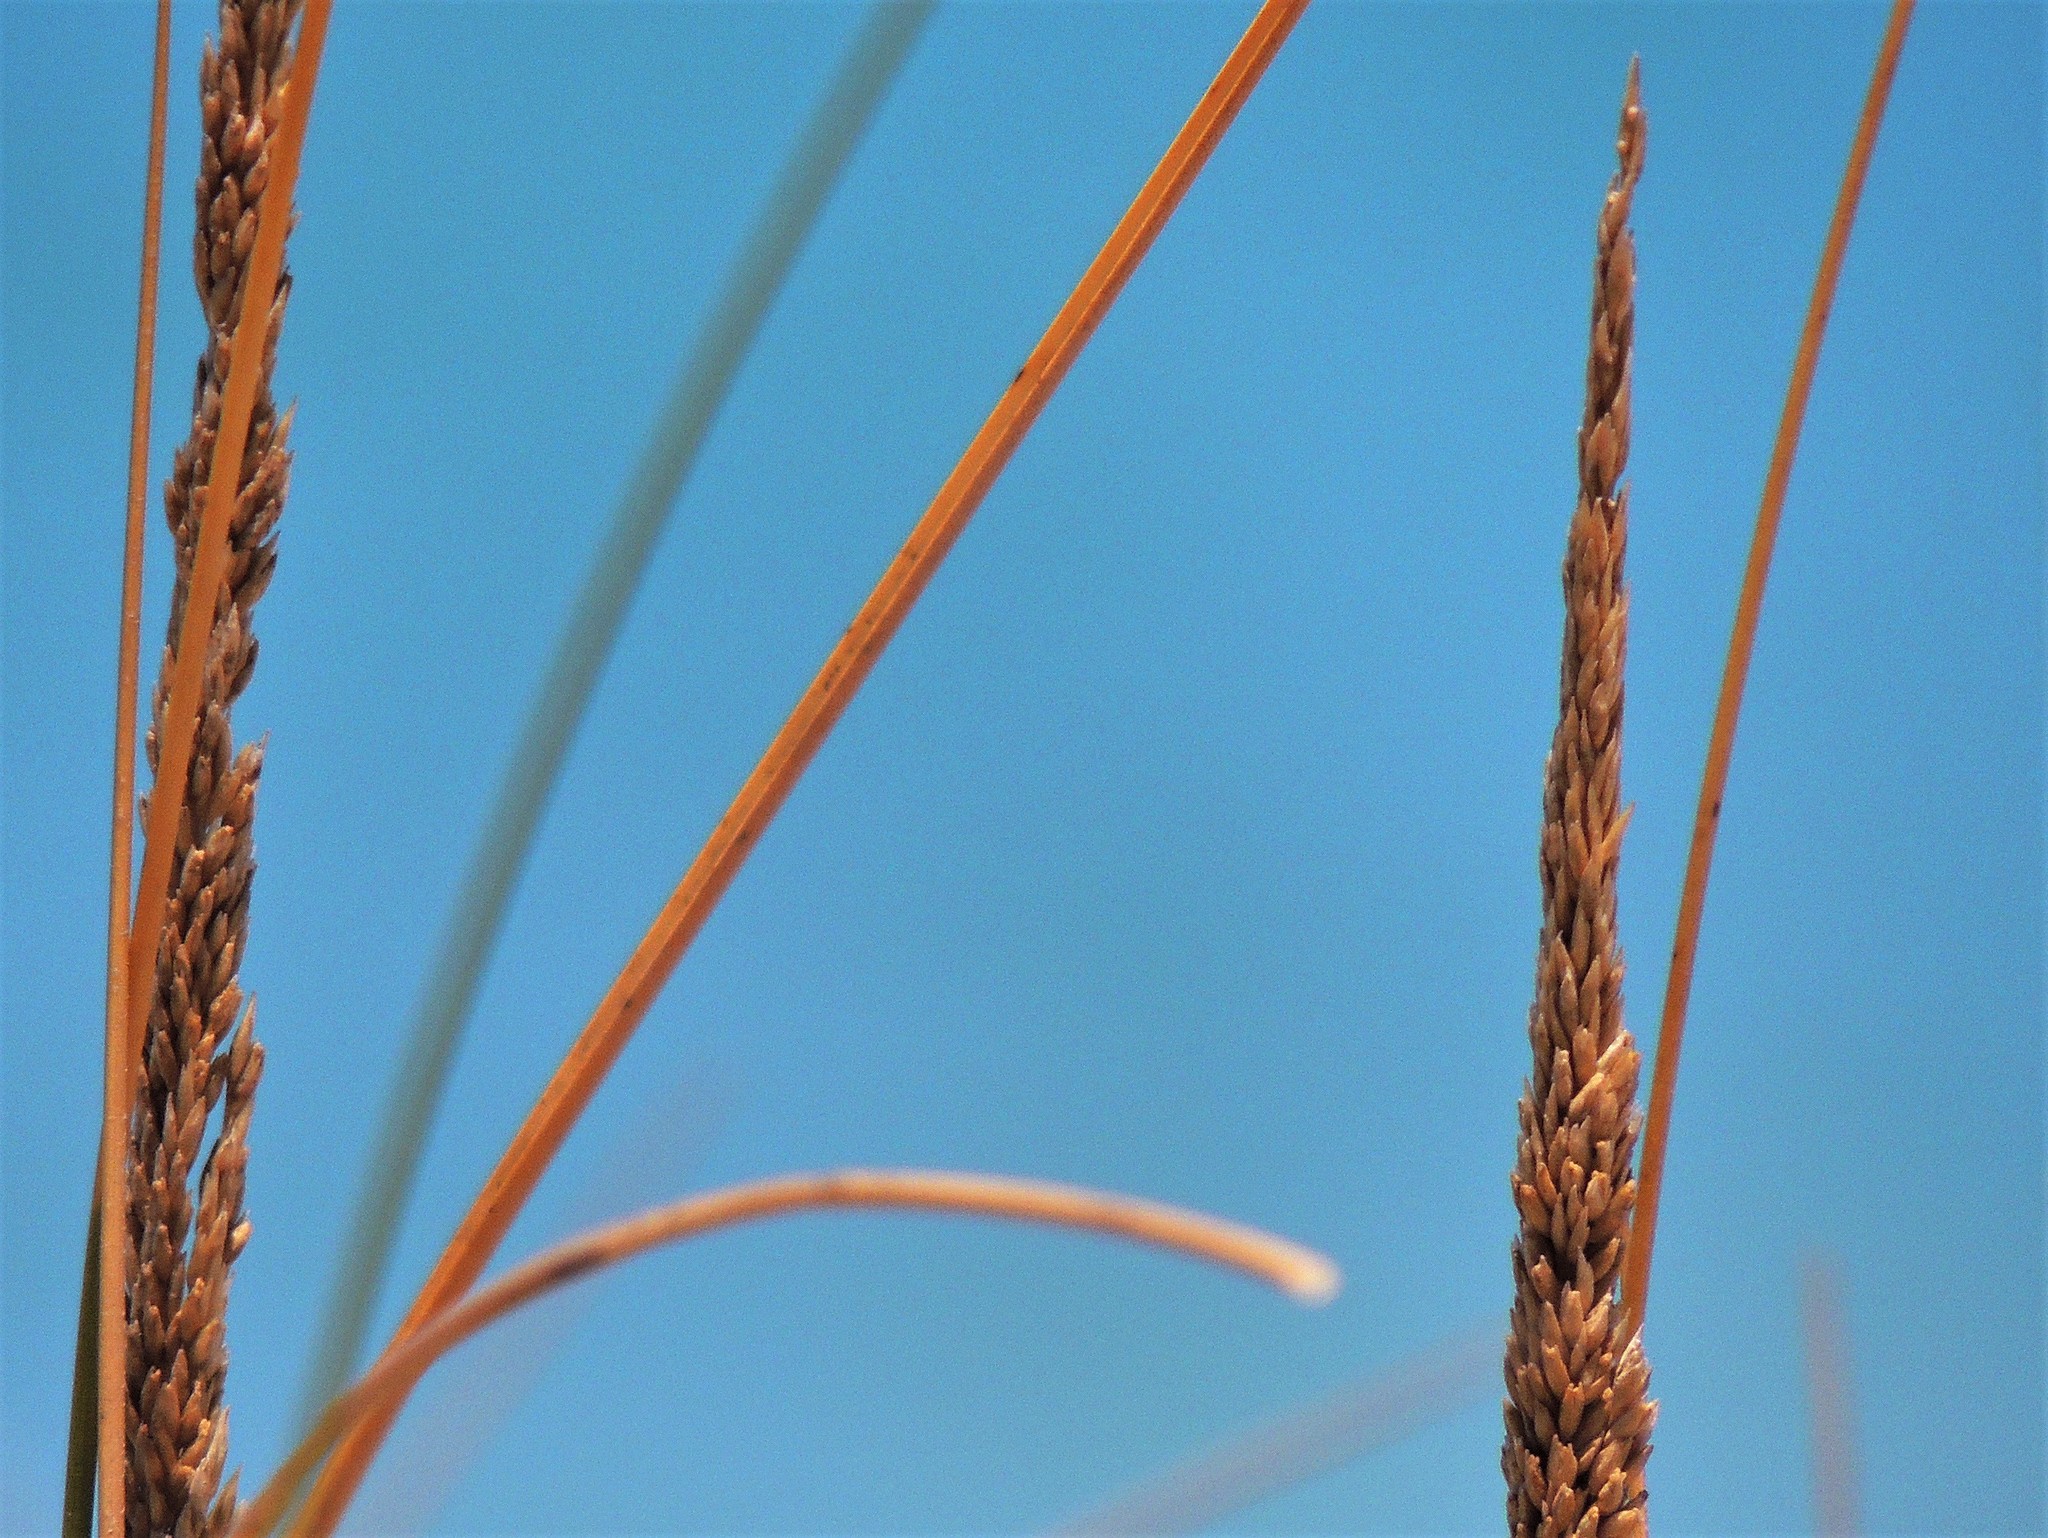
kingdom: Plantae
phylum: Tracheophyta
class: Liliopsida
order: Poales
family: Poaceae
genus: Sporobolus
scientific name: Sporobolus rigens
